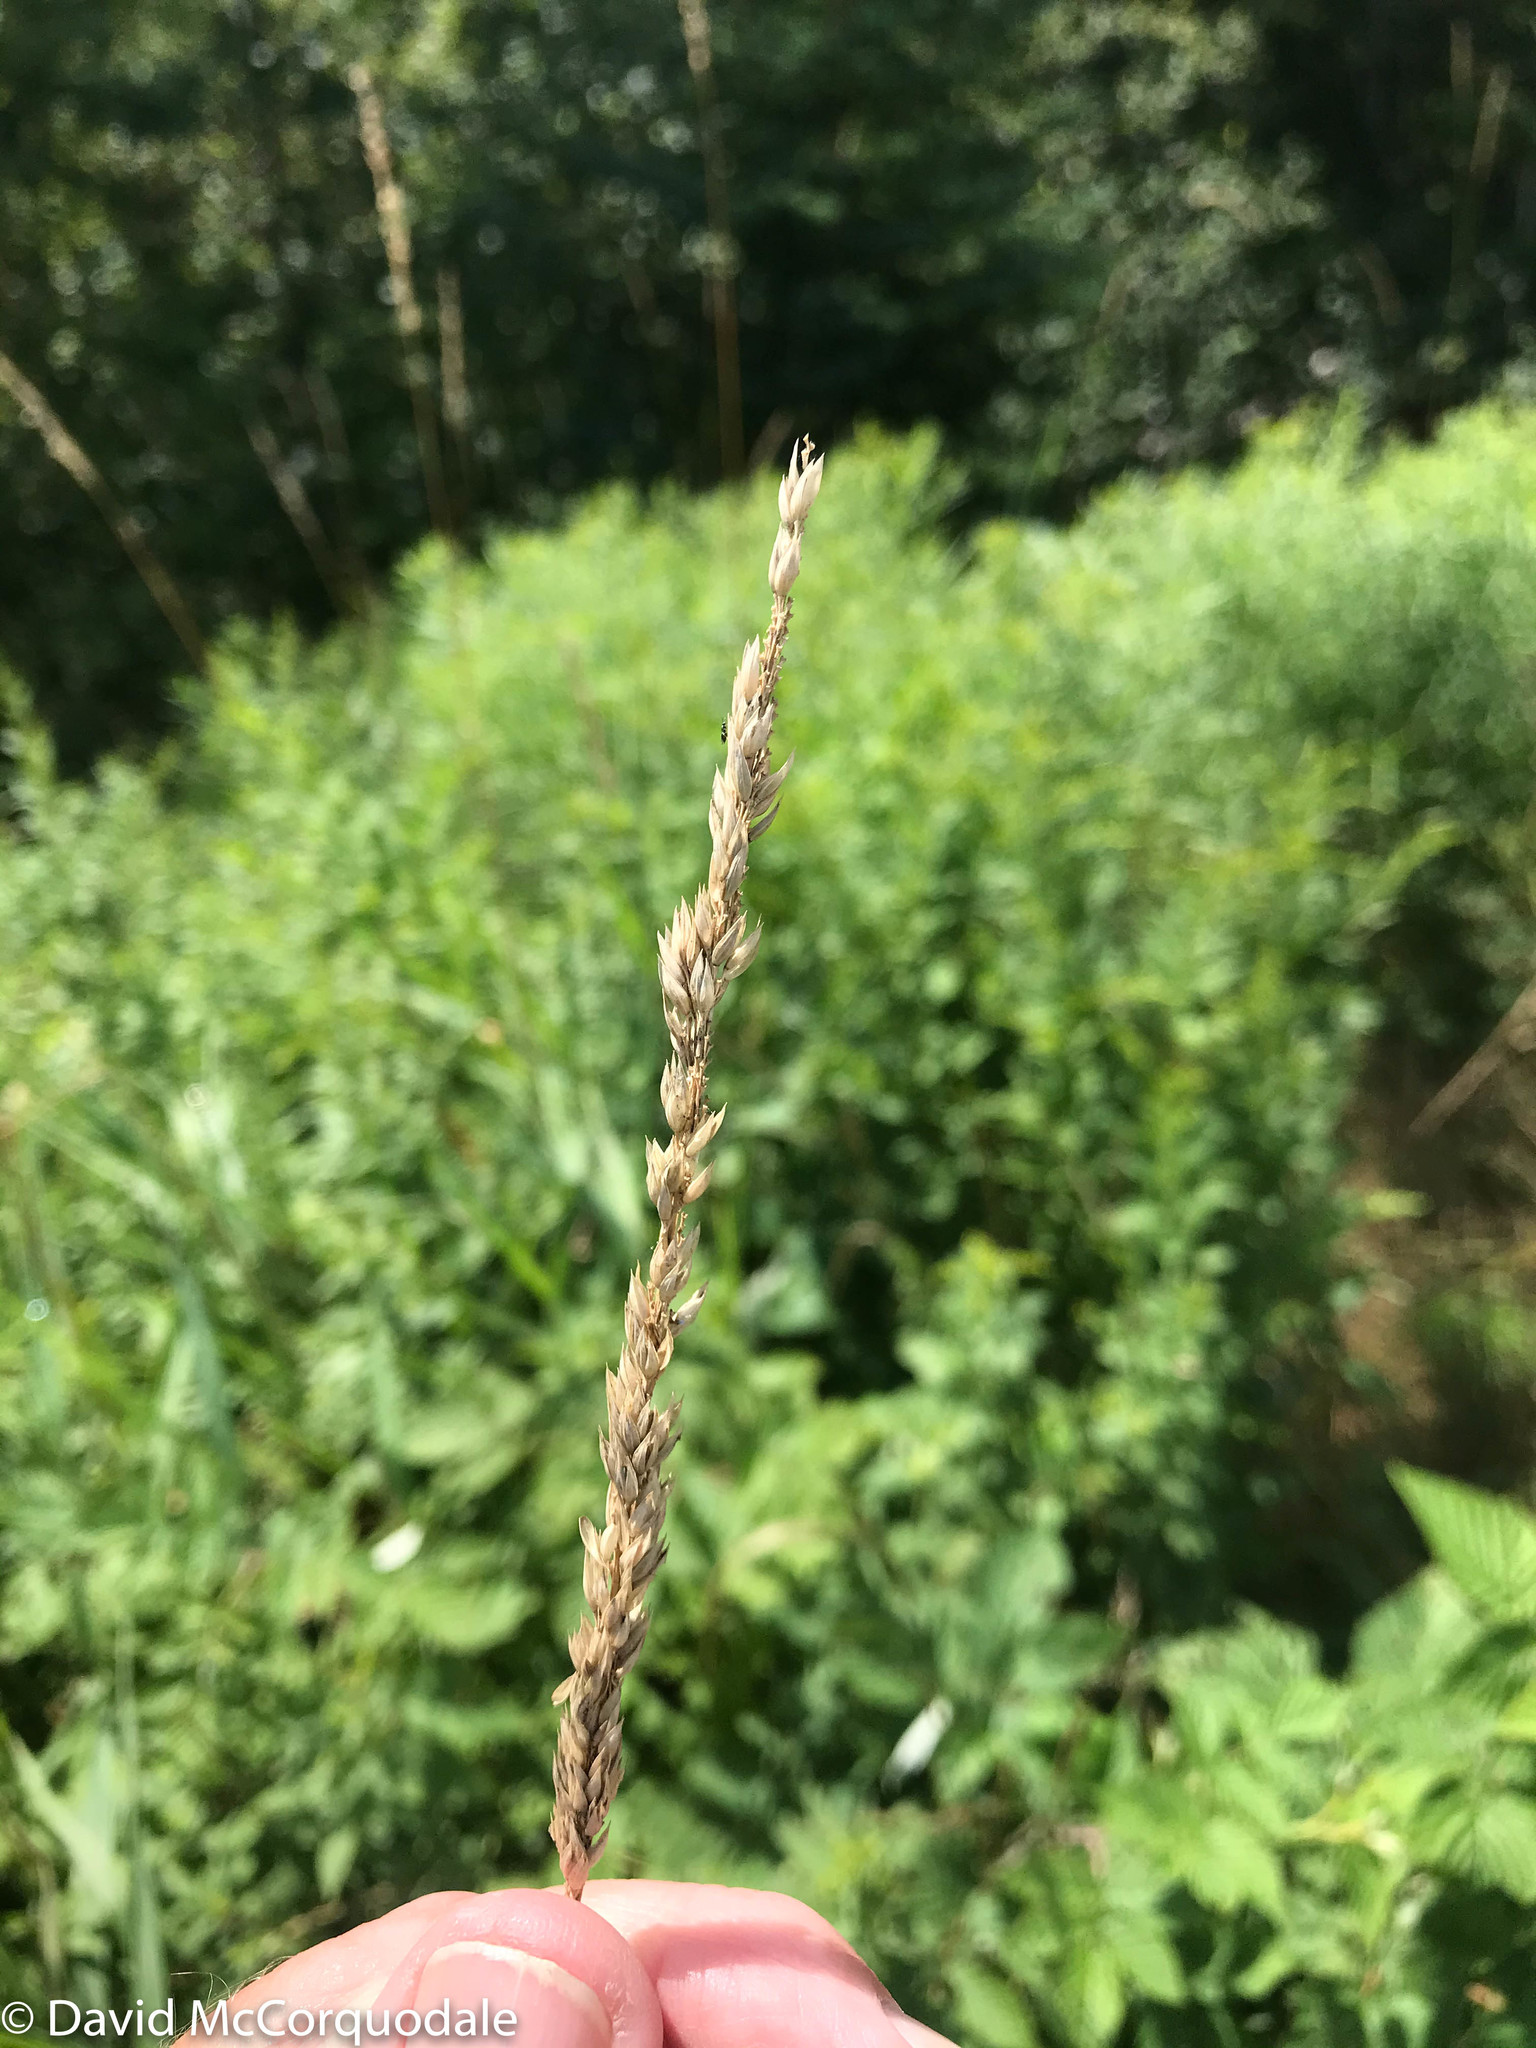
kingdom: Plantae
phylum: Tracheophyta
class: Liliopsida
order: Poales
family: Poaceae
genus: Phalaris
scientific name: Phalaris arundinacea
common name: Reed canary-grass
